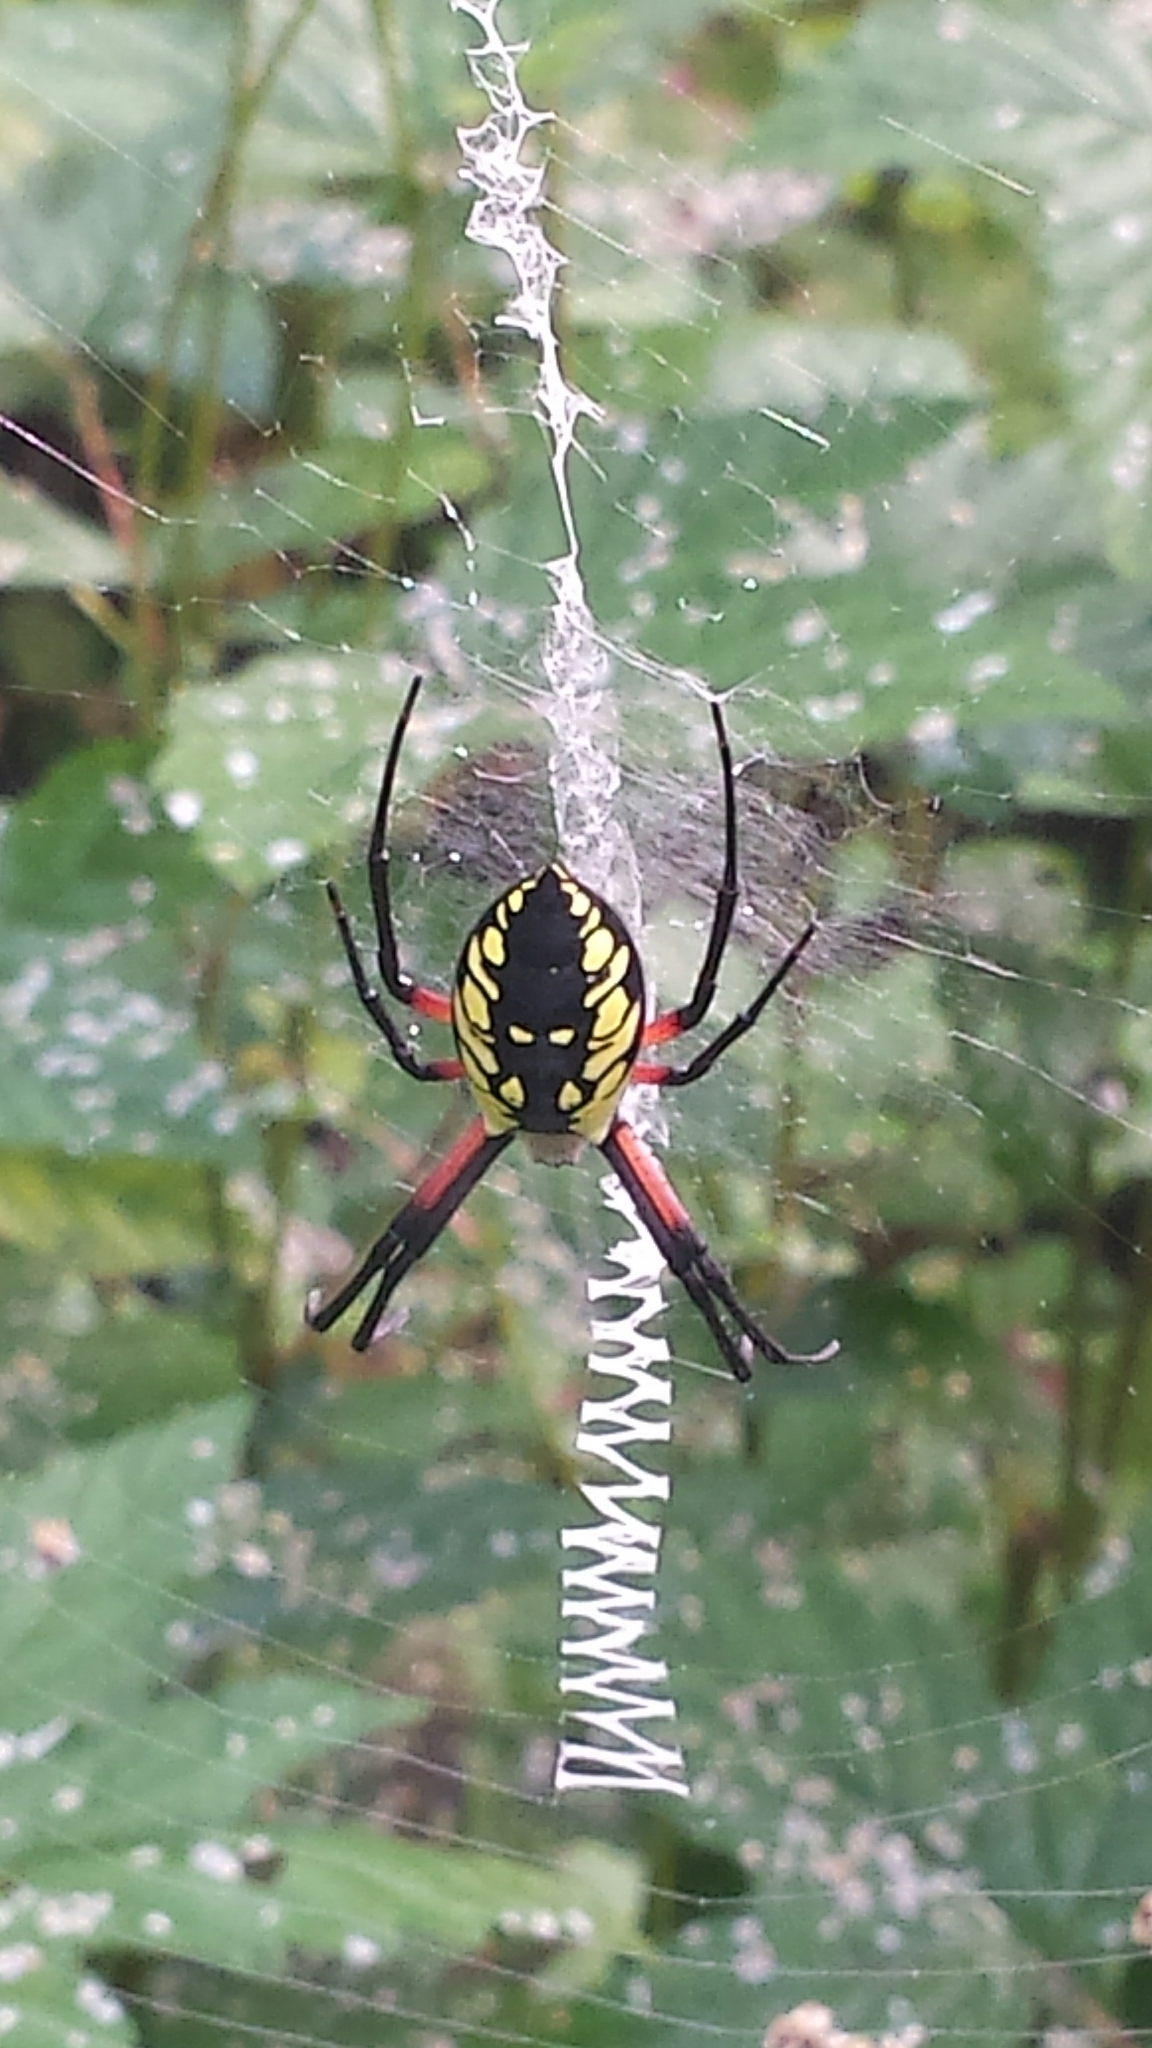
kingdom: Animalia
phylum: Arthropoda
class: Arachnida
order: Araneae
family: Araneidae
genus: Argiope
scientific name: Argiope aurantia
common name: Orb weavers
